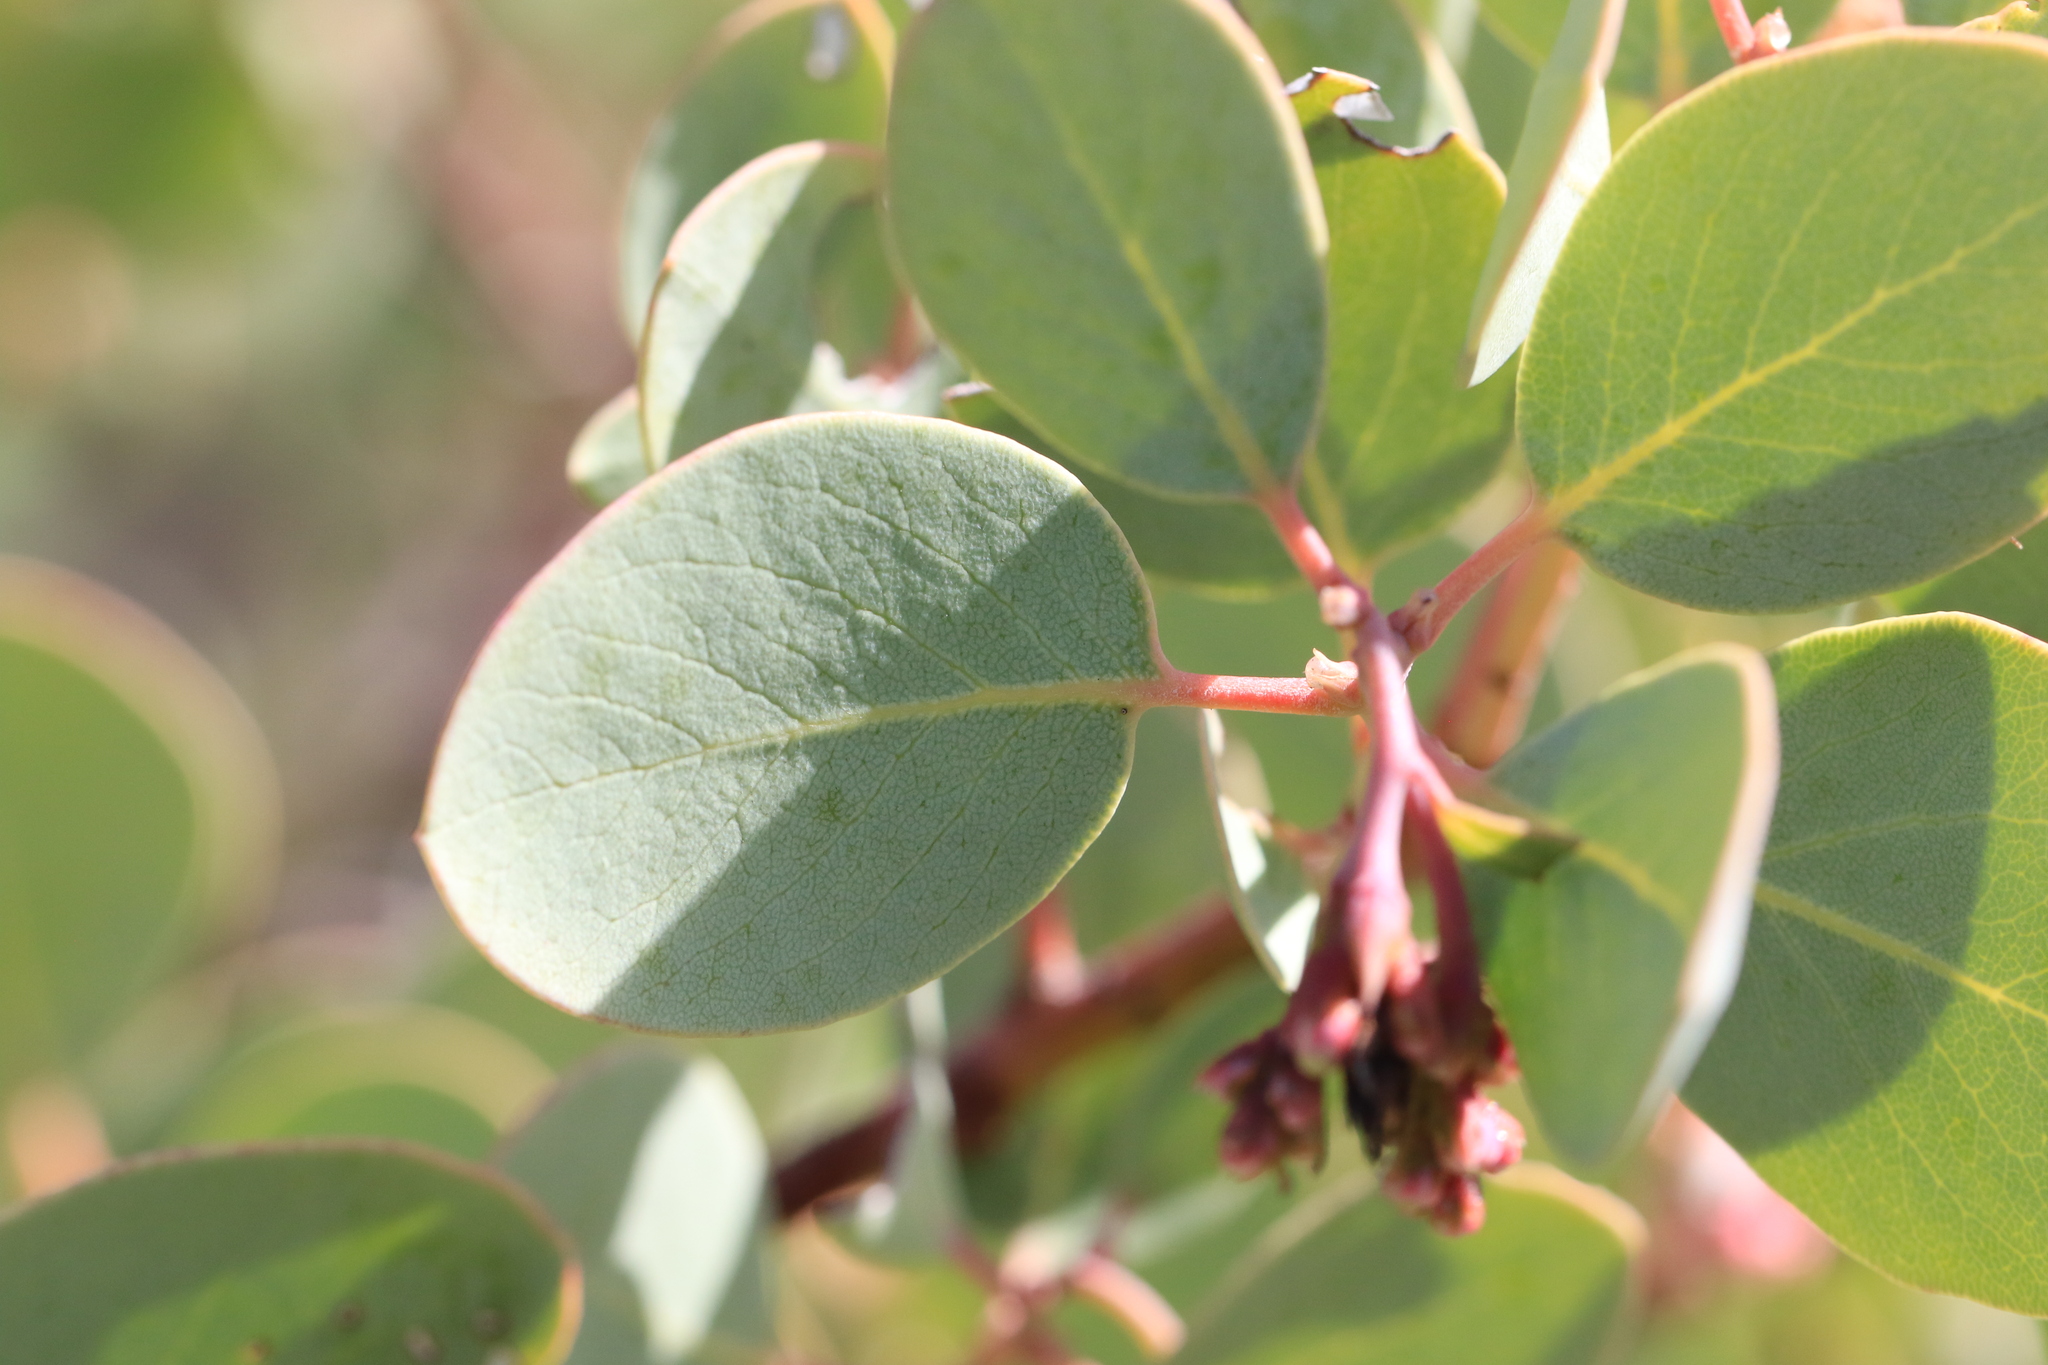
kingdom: Plantae
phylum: Tracheophyta
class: Magnoliopsida
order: Ericales
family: Ericaceae
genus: Arctostaphylos
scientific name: Arctostaphylos viscida
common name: White-leaf manzanita
